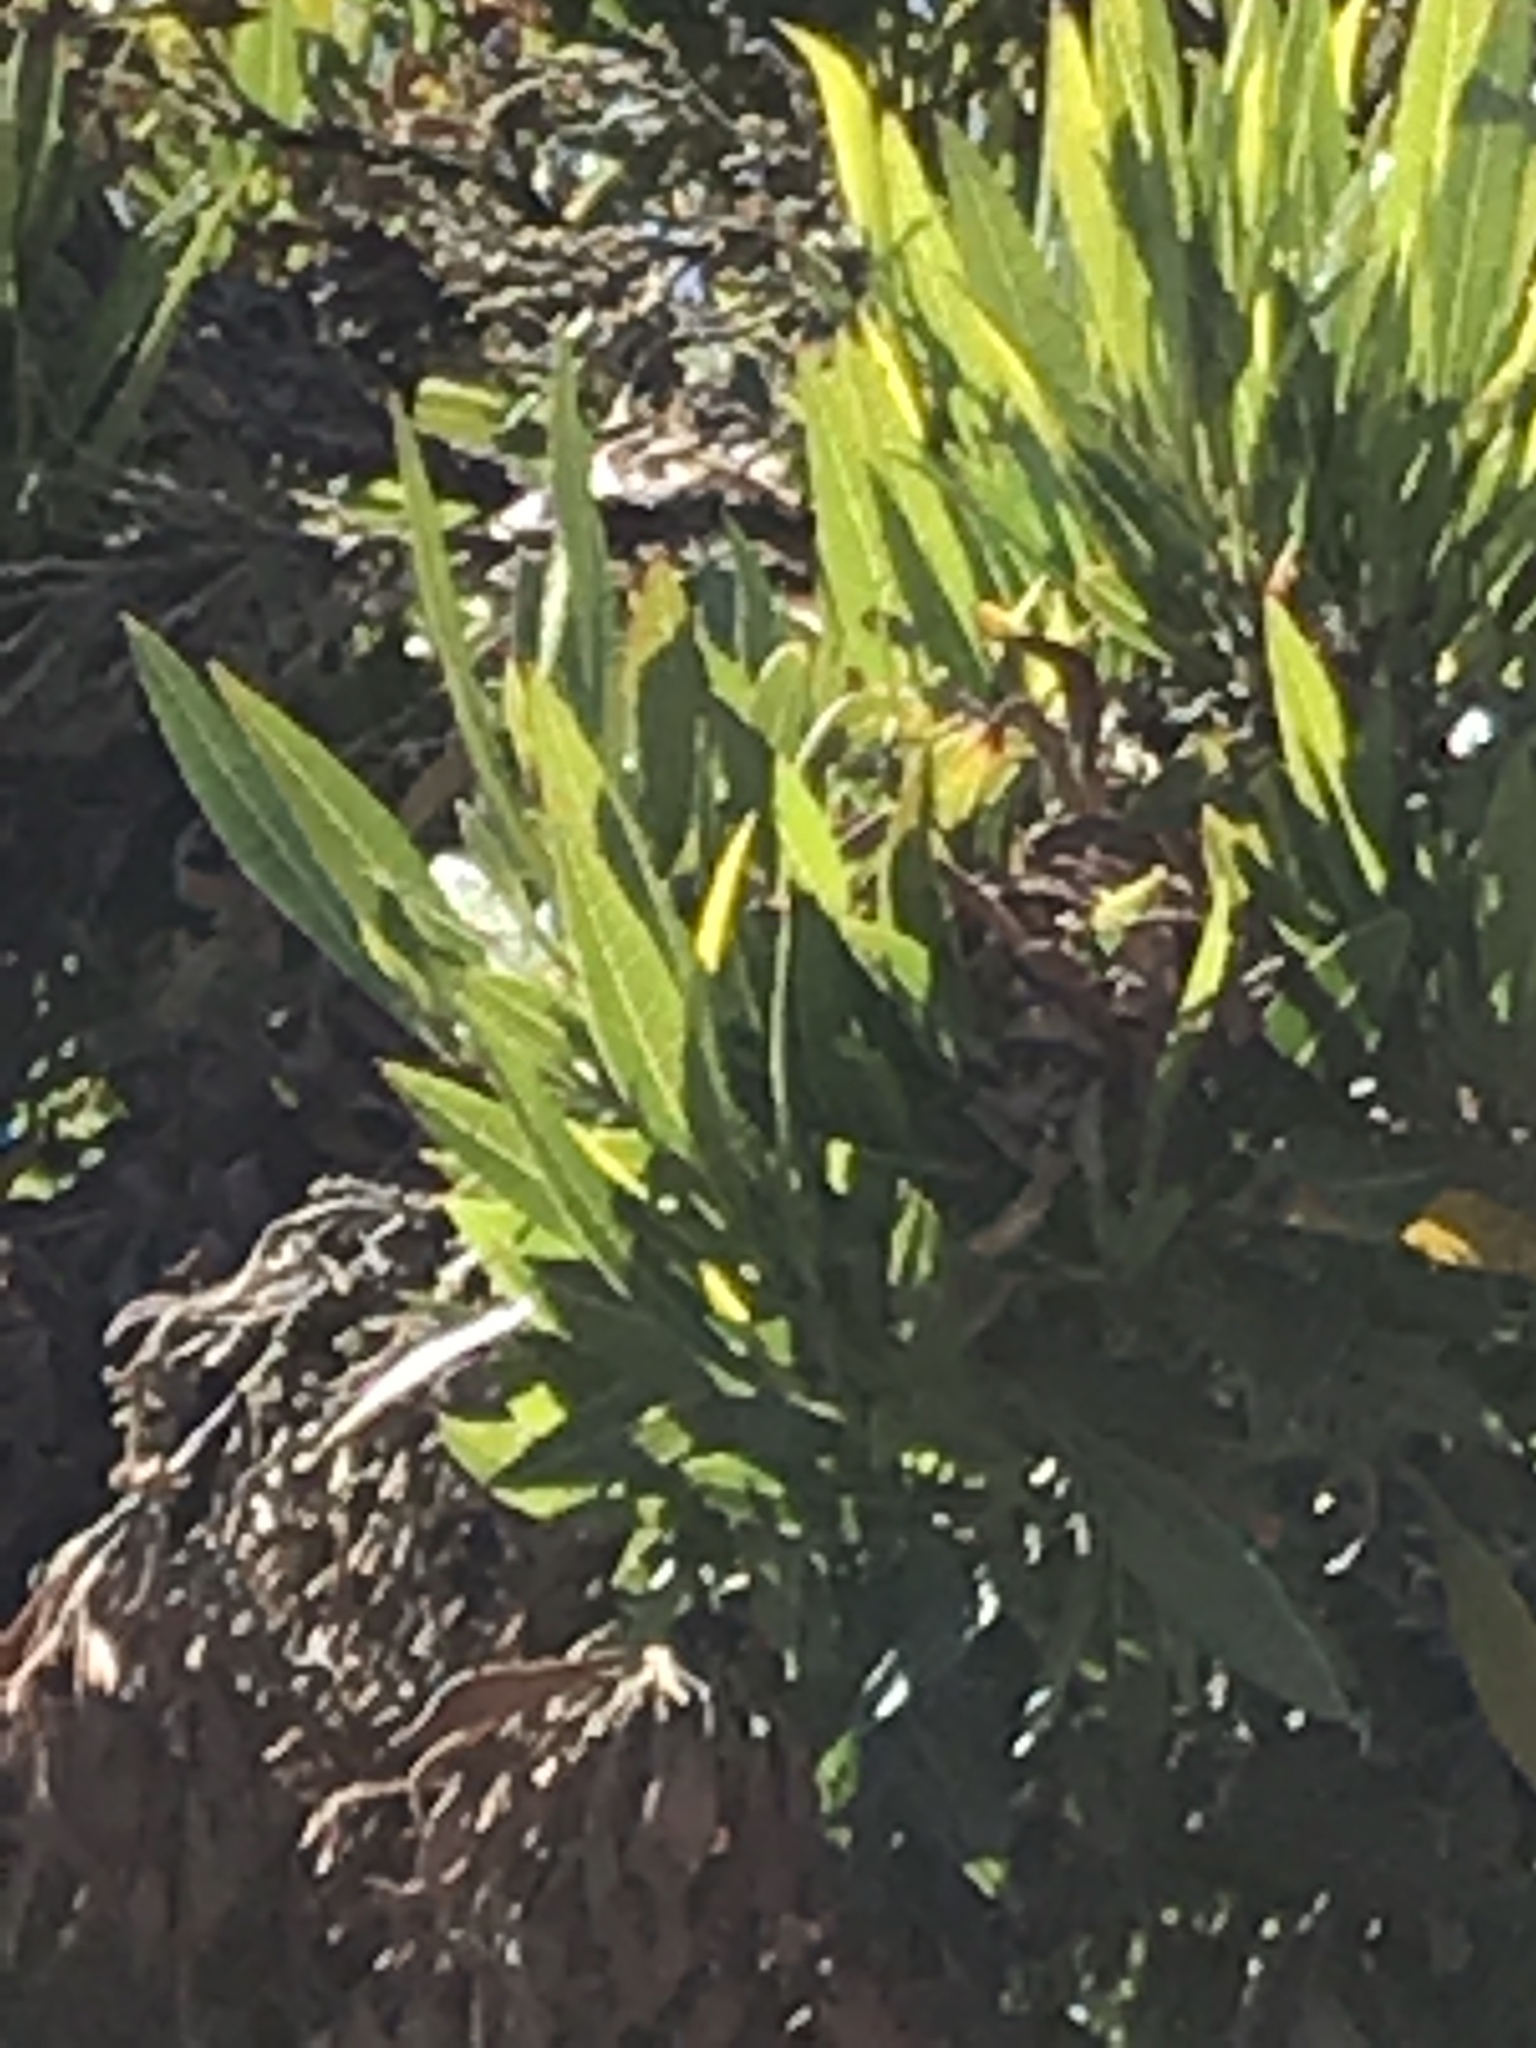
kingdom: Plantae
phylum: Tracheophyta
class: Magnoliopsida
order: Sapindales
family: Sapindaceae
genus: Dodonaea
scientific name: Dodonaea viscosa
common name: Hopbush
